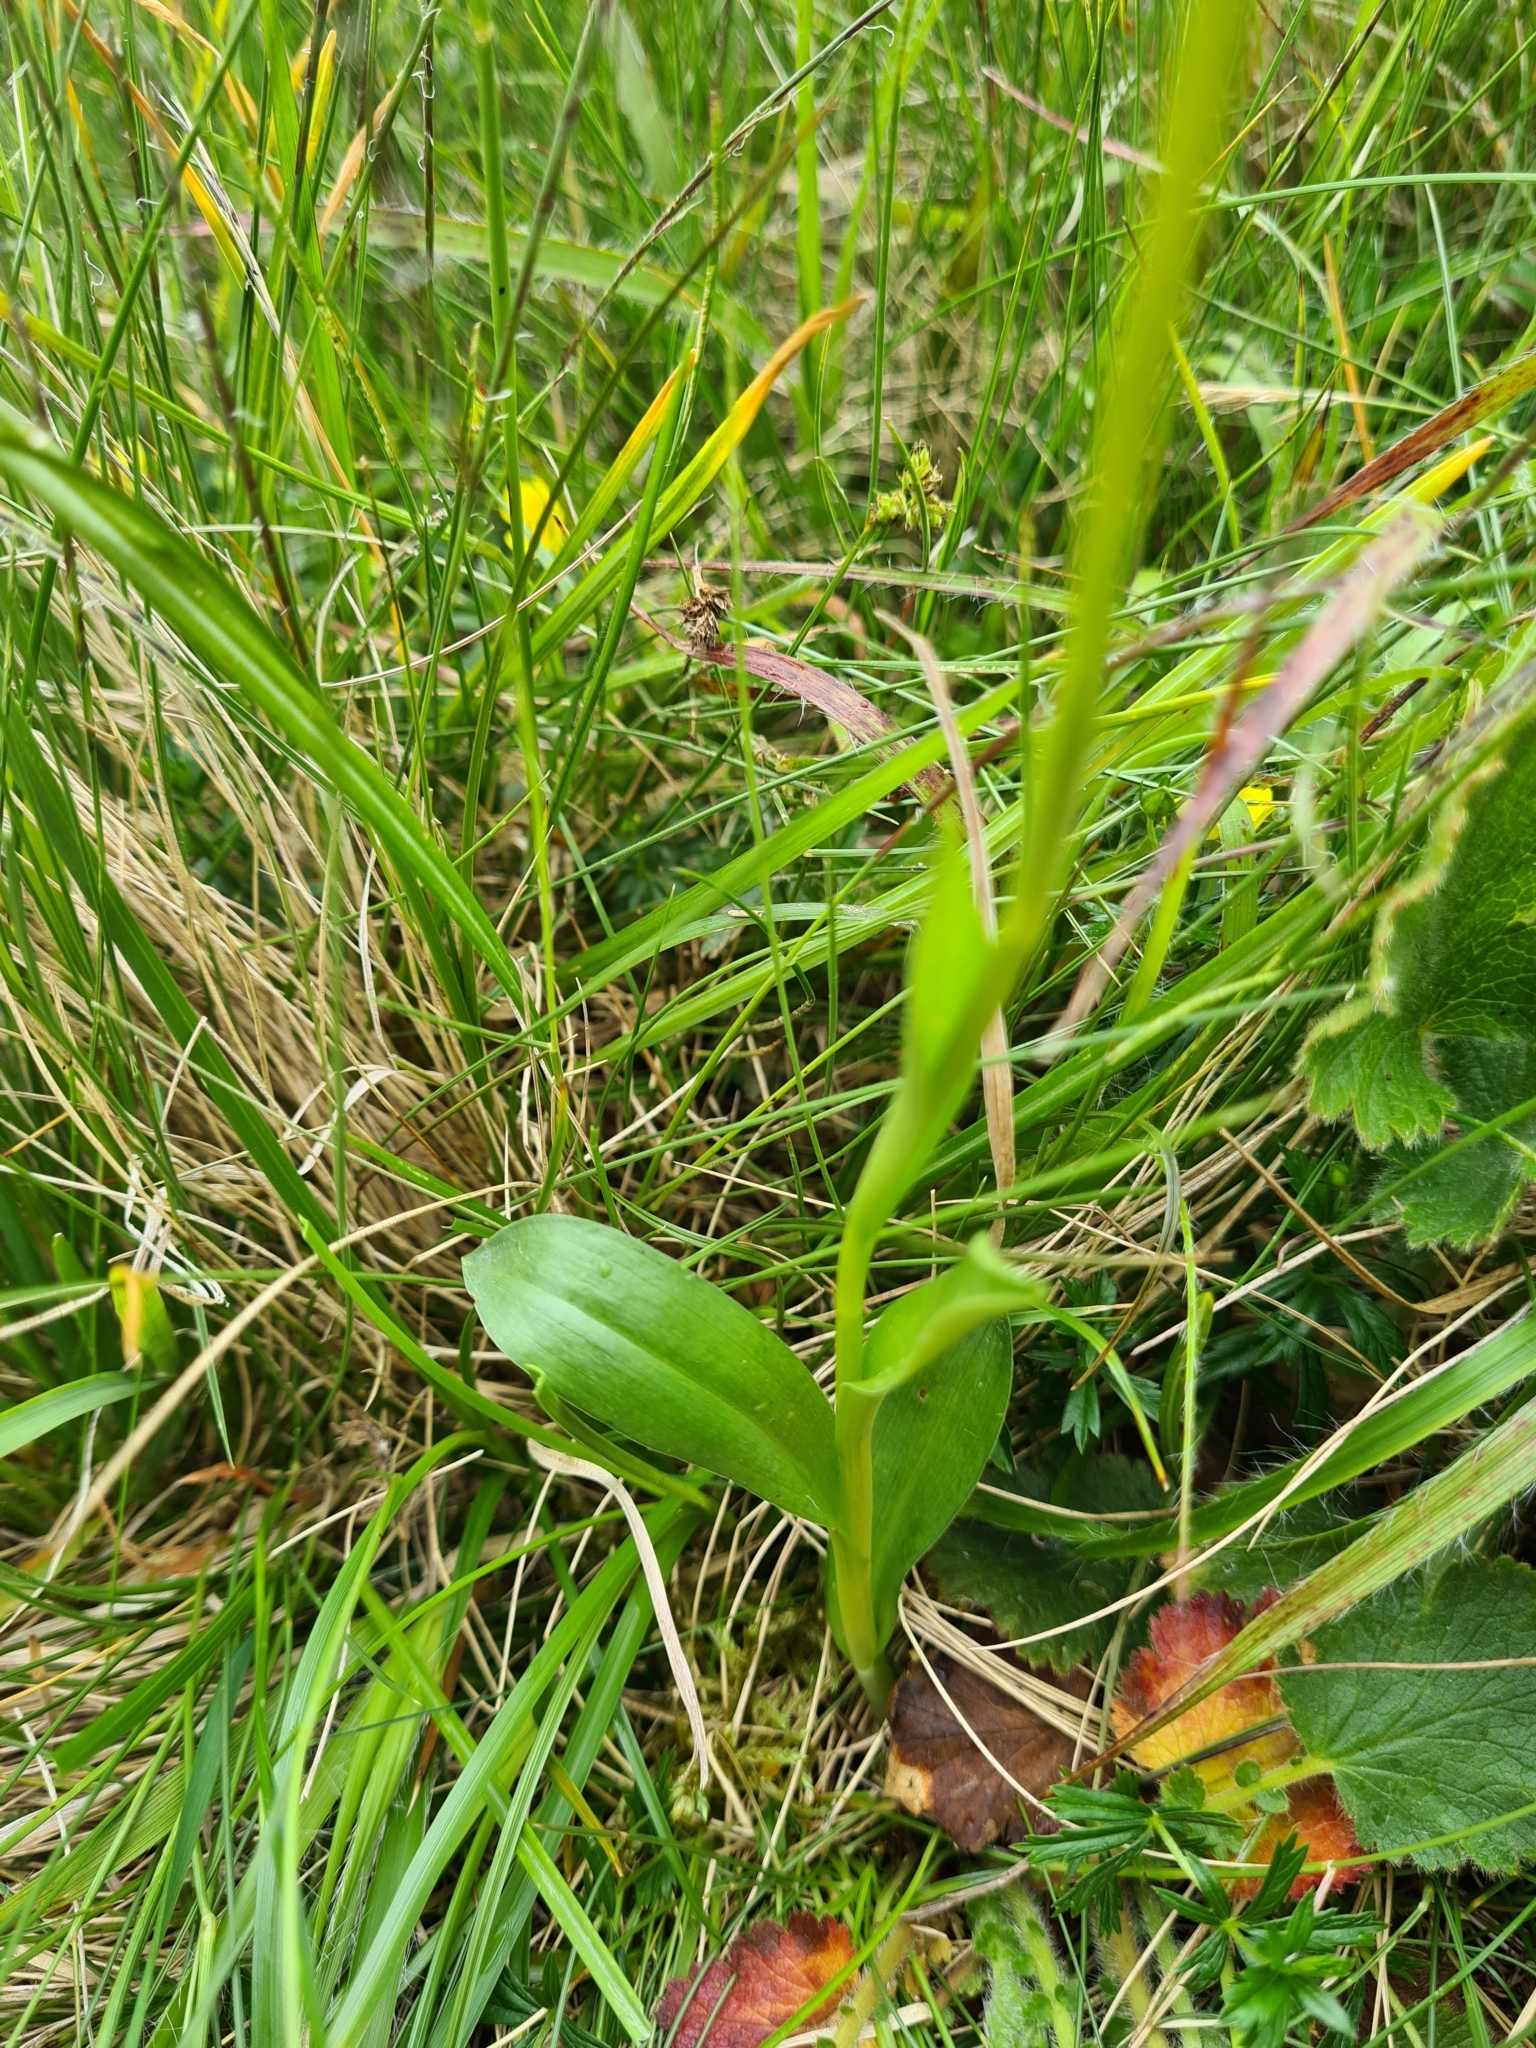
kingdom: Plantae
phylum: Tracheophyta
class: Liliopsida
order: Asparagales
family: Orchidaceae
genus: Pseudorchis
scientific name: Pseudorchis albida
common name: Small-white orchid
